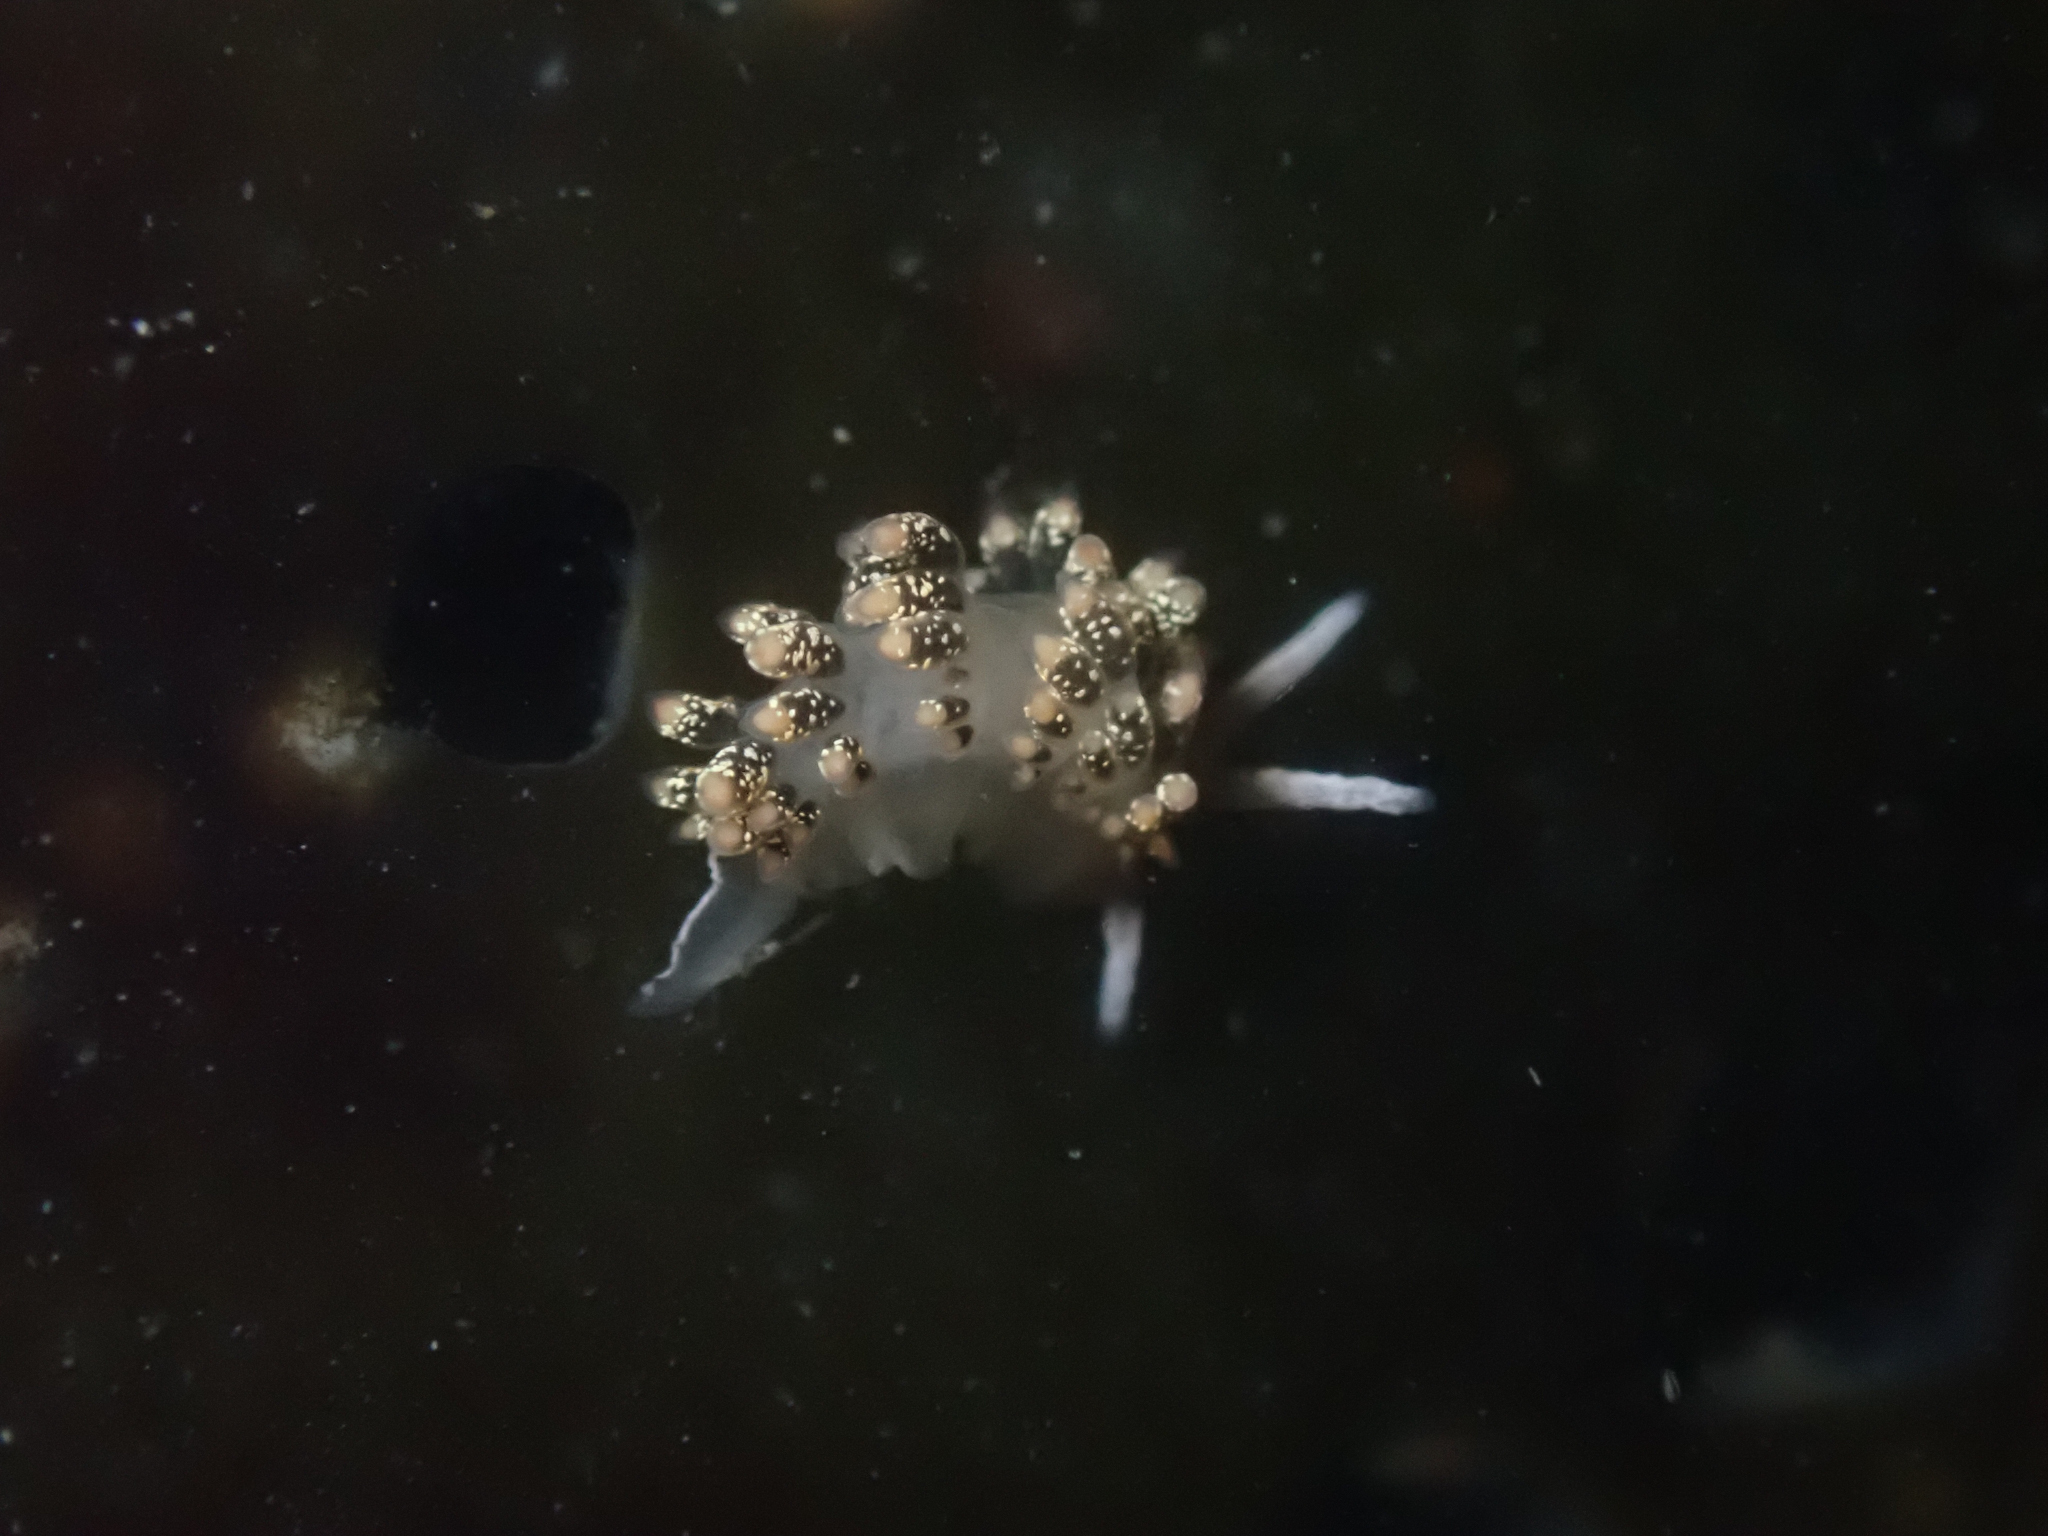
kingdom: Animalia
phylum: Mollusca
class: Gastropoda
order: Nudibranchia
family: Trinchesiidae
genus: Diaphoreolis
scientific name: Diaphoreolis flavovulta
